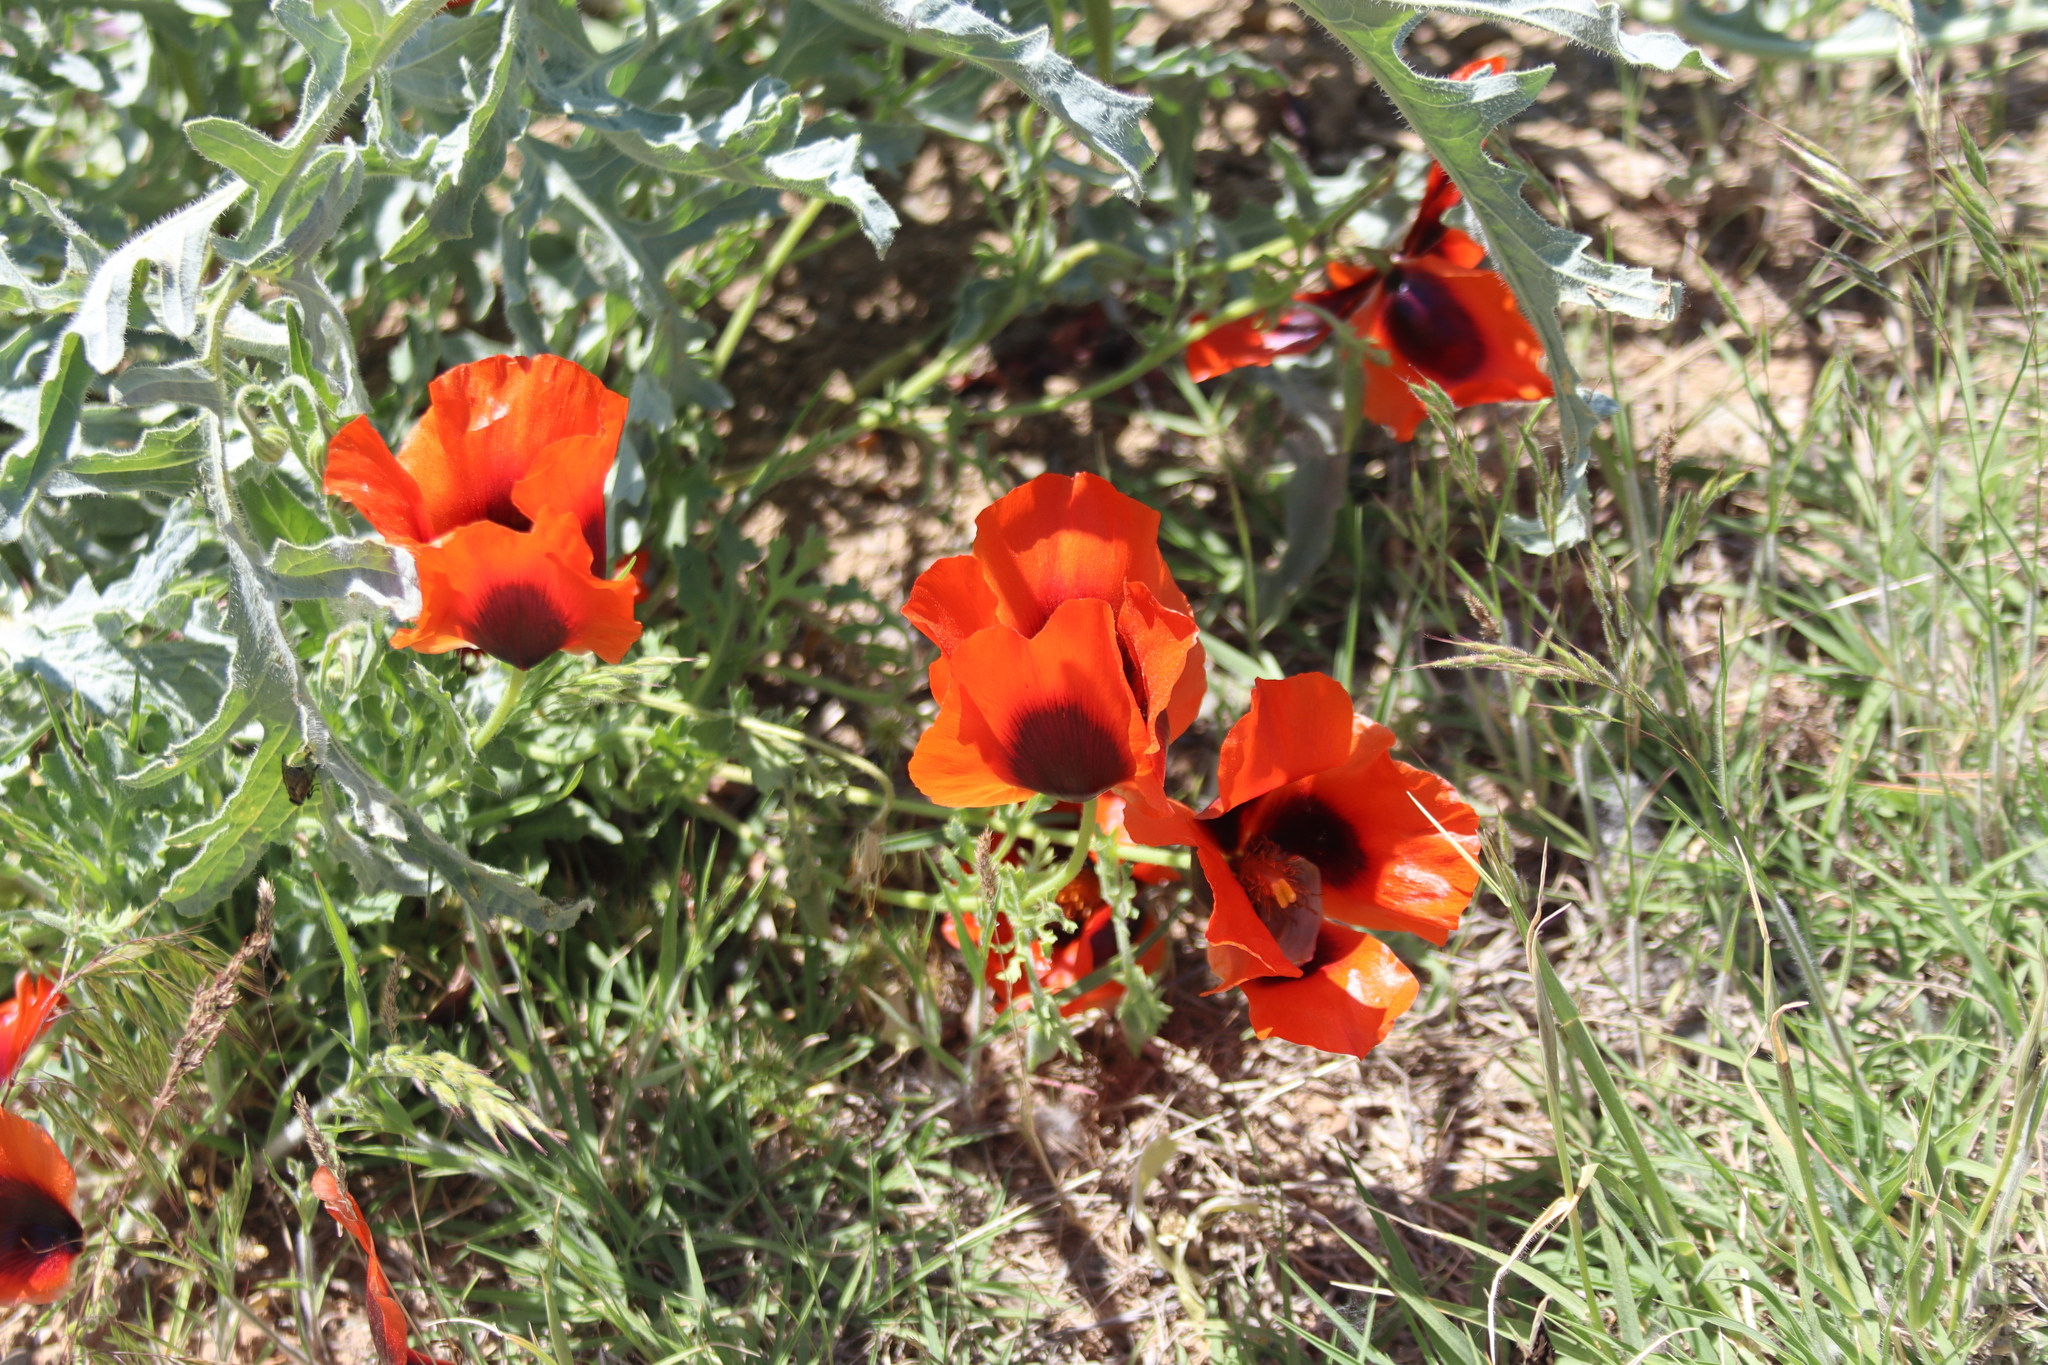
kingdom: Plantae
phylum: Tracheophyta
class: Magnoliopsida
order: Ranunculales
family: Papaveraceae
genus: Glaucium
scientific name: Glaucium corniculatum
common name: Red horned-poppy
